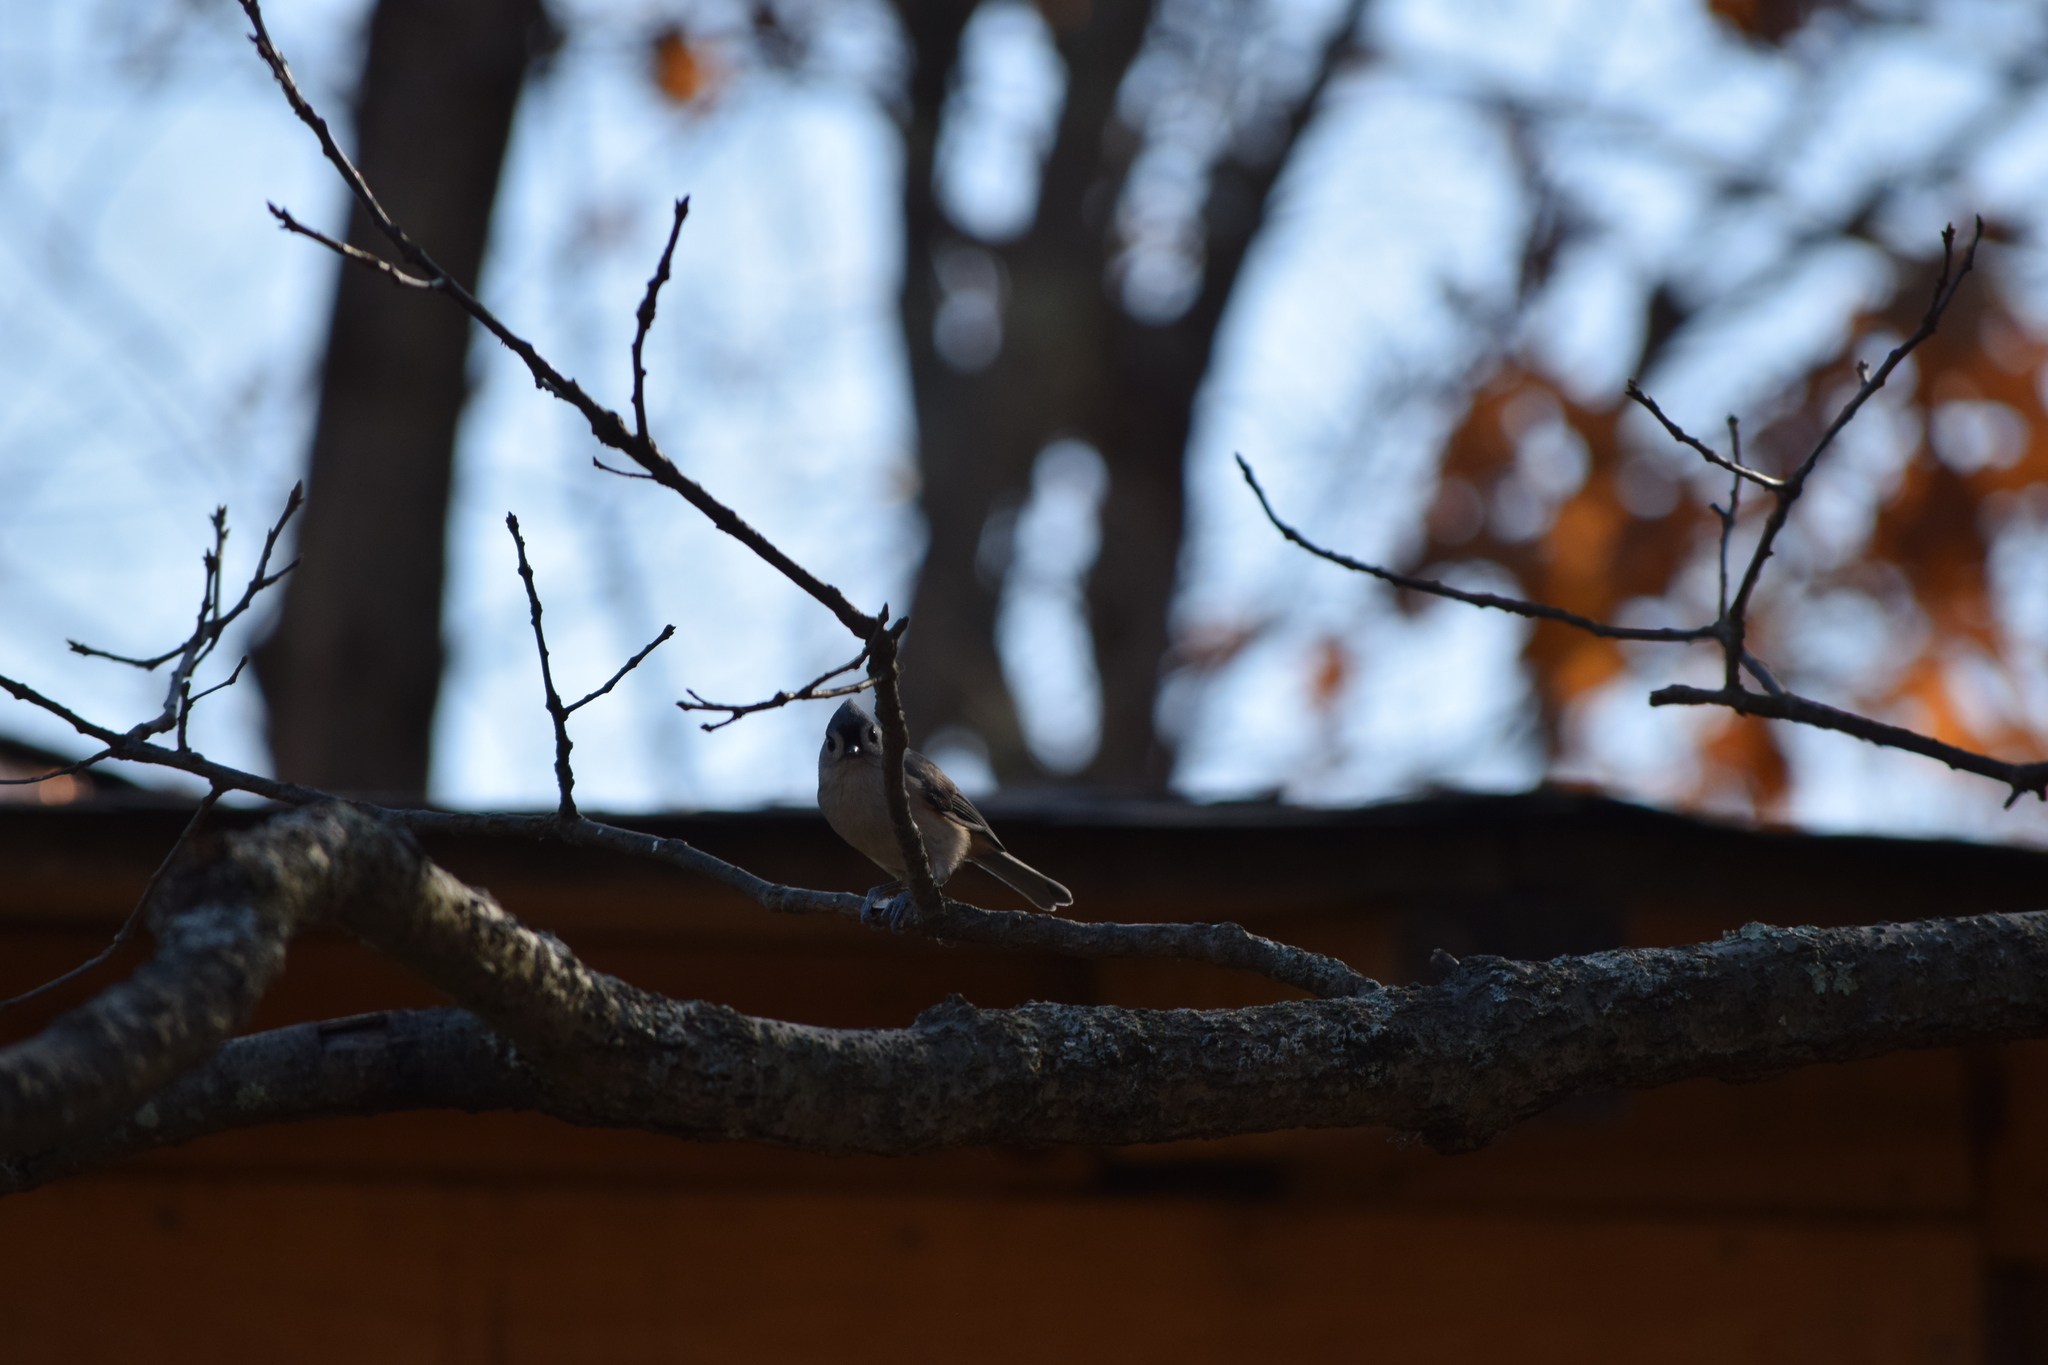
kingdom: Animalia
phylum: Chordata
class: Aves
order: Passeriformes
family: Paridae
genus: Baeolophus
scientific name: Baeolophus bicolor
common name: Tufted titmouse
